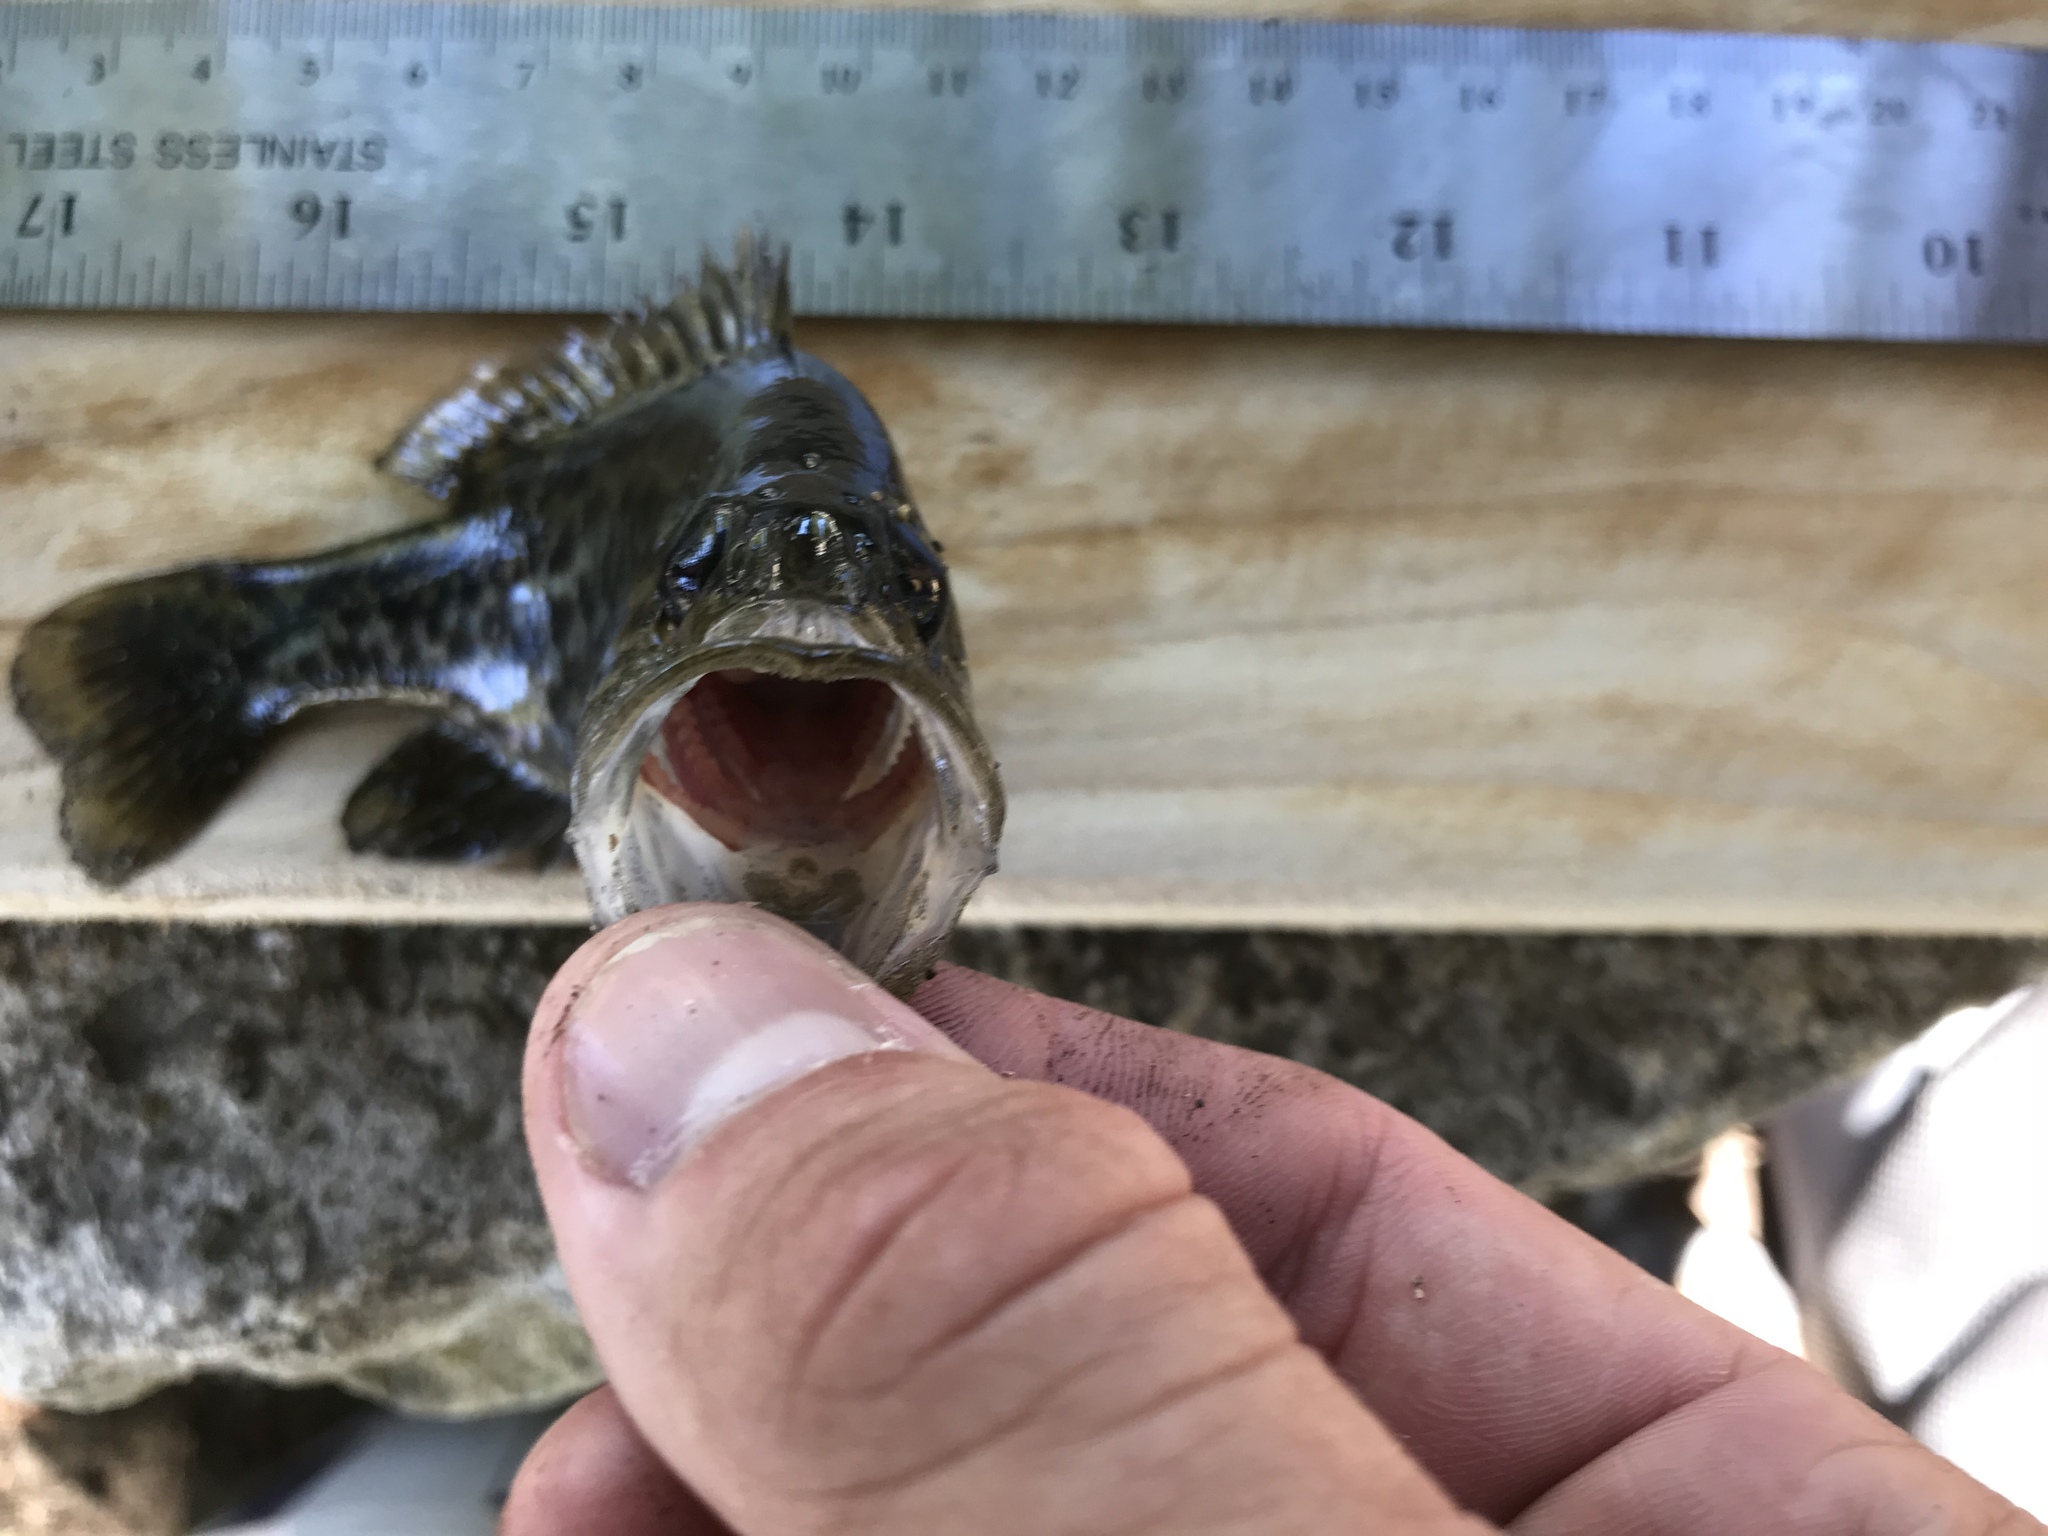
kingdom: Animalia
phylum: Chordata
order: Perciformes
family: Centrarchidae
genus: Lepomis
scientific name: Lepomis gulosus
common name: Warmouth
